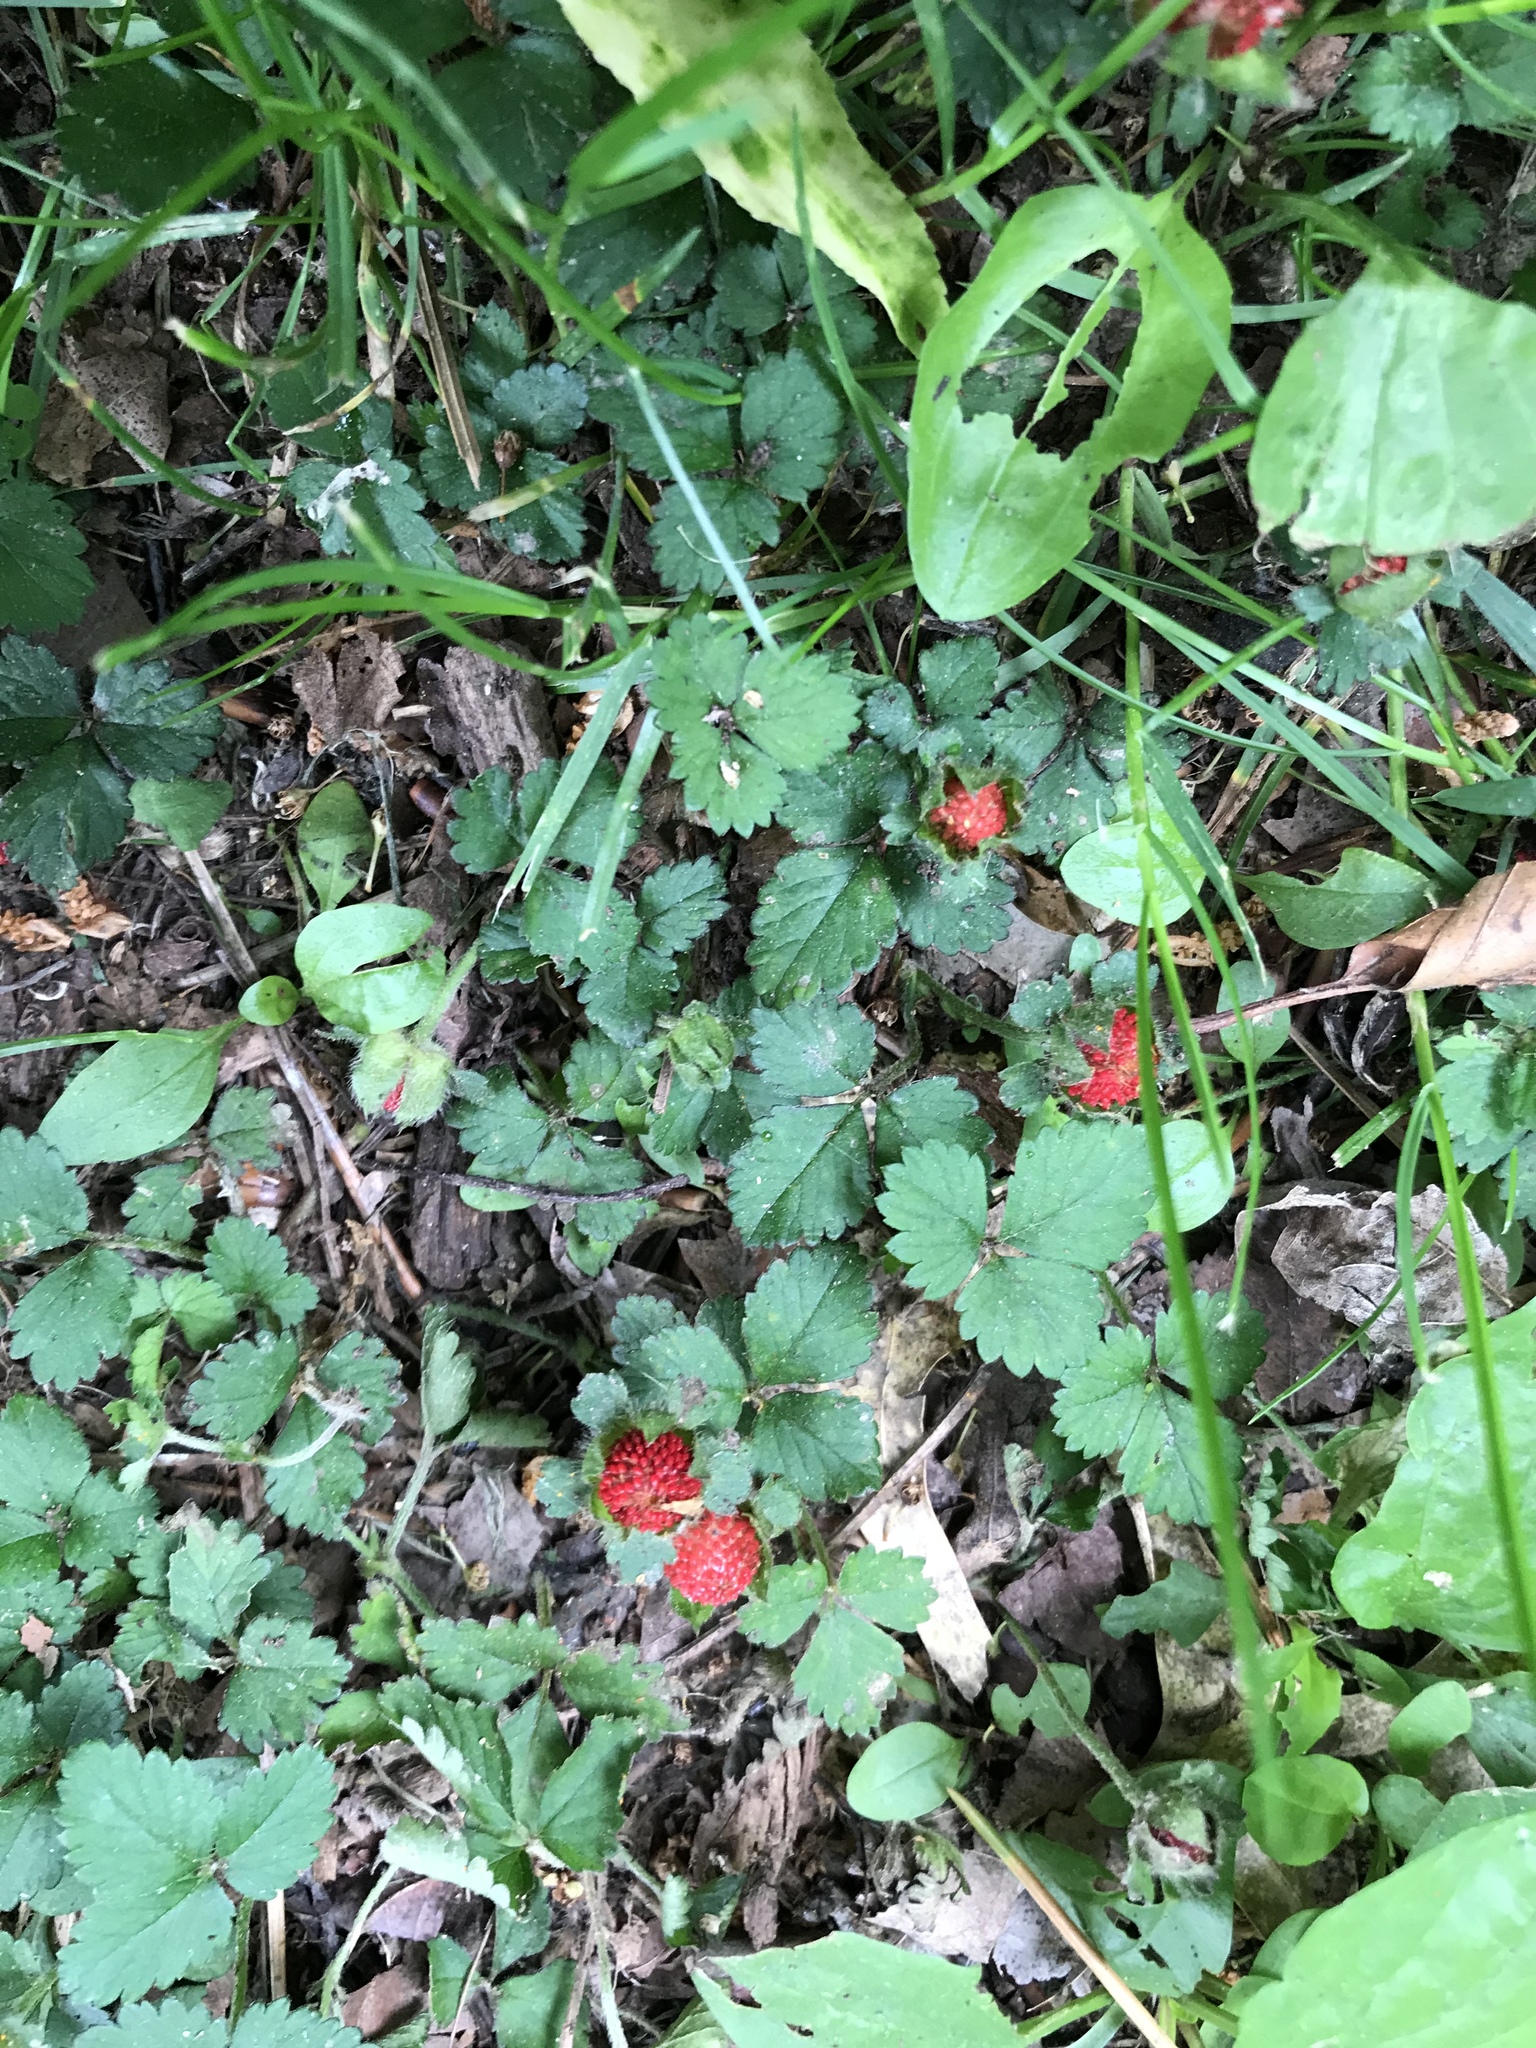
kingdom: Plantae
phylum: Tracheophyta
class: Magnoliopsida
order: Rosales
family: Rosaceae
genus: Potentilla
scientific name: Potentilla indica
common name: Yellow-flowered strawberry
